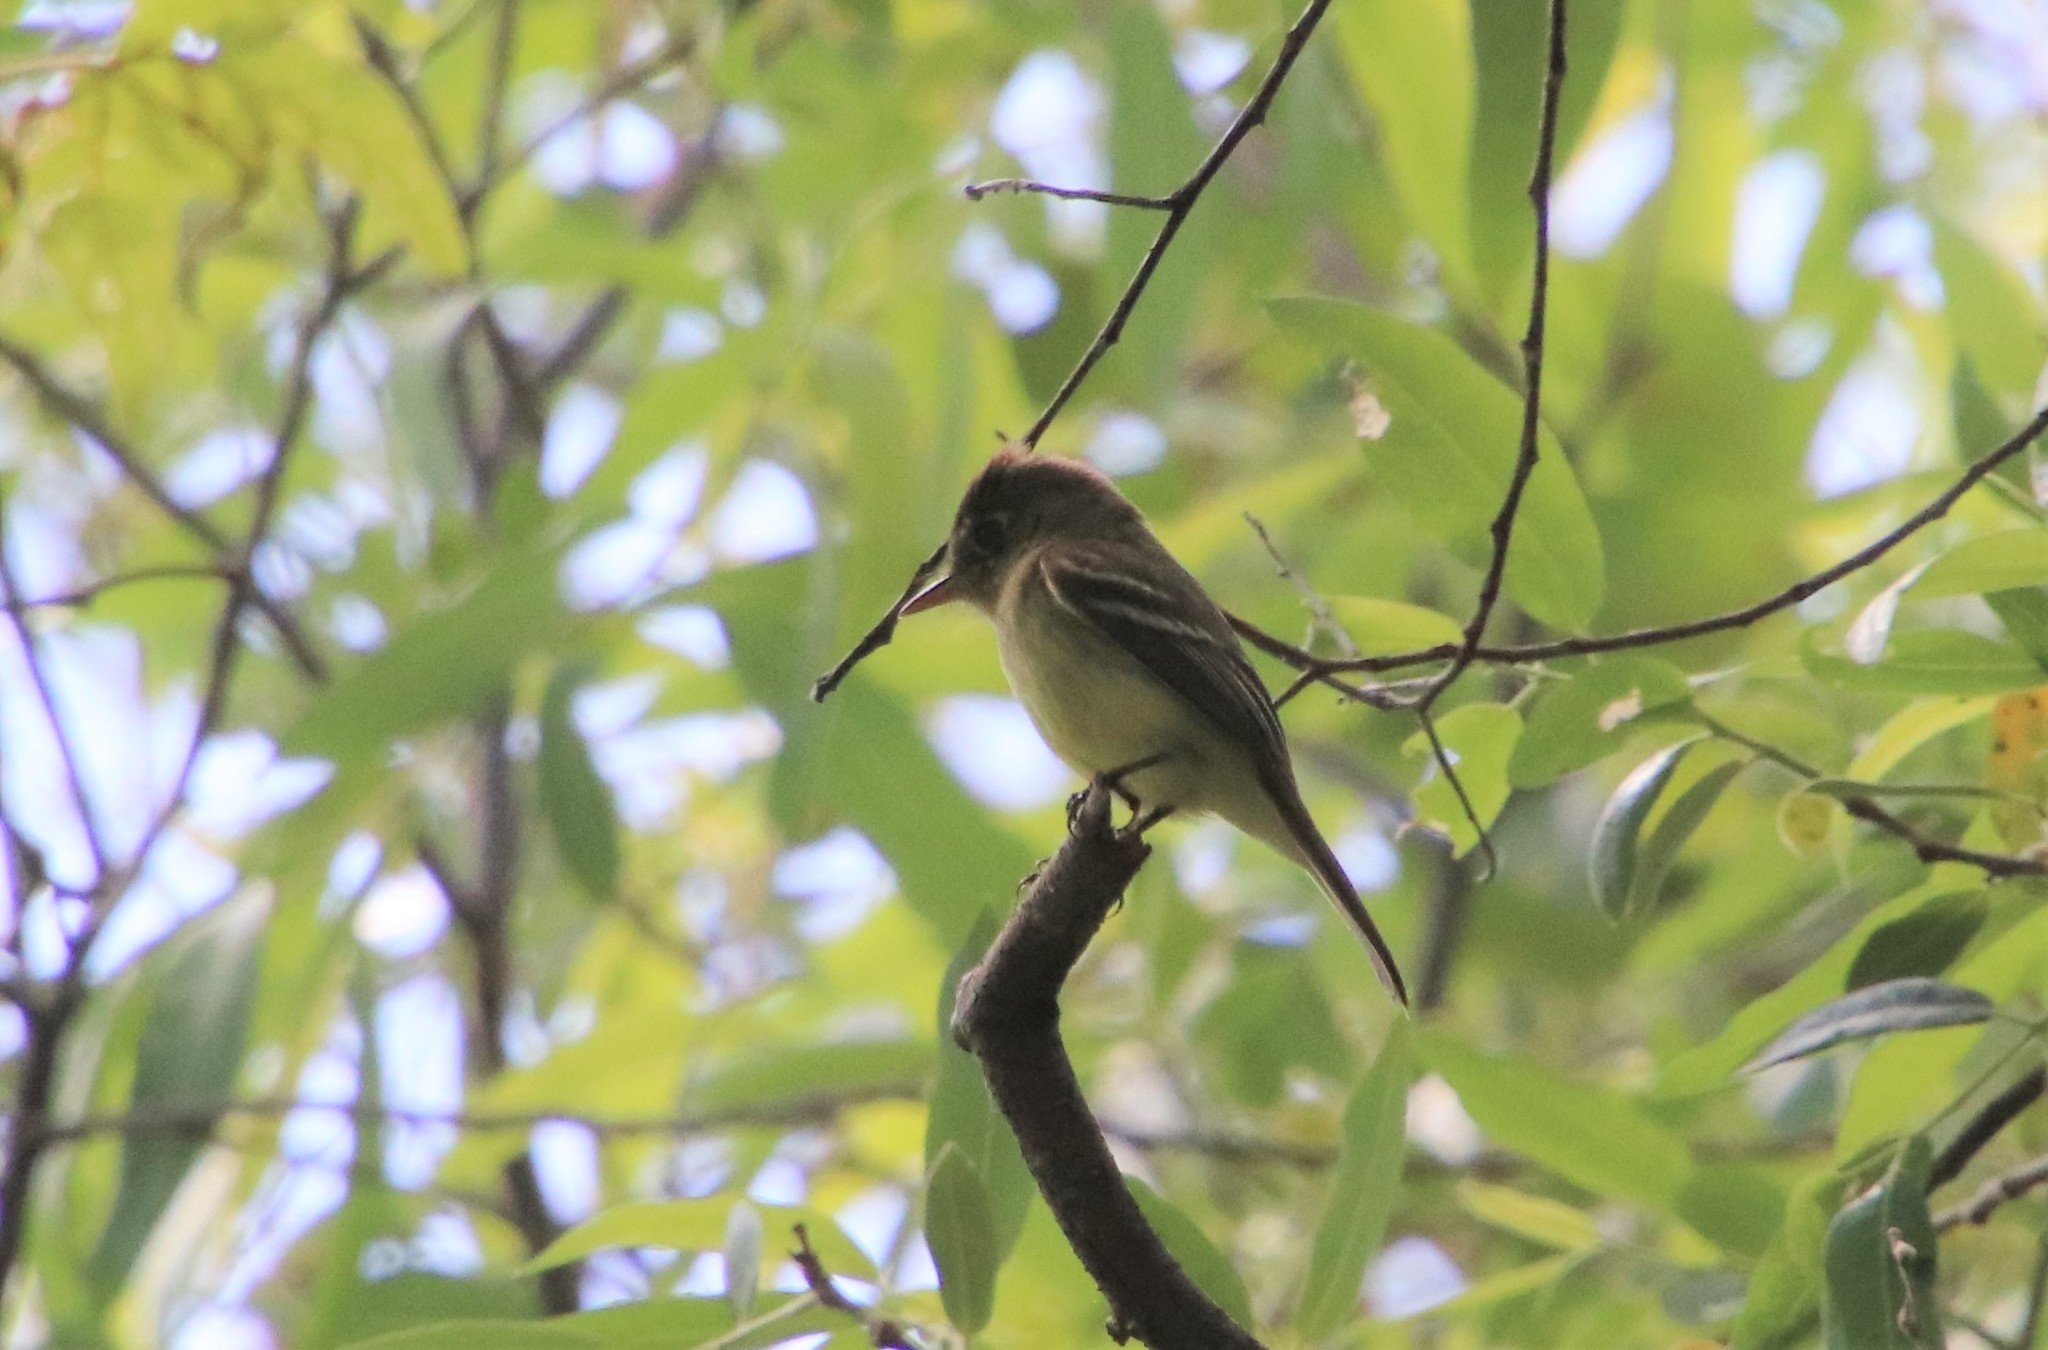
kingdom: Animalia
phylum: Chordata
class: Aves
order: Passeriformes
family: Tyrannidae
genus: Empidonax
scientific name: Empidonax difficilis
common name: Pacific-slope flycatcher
